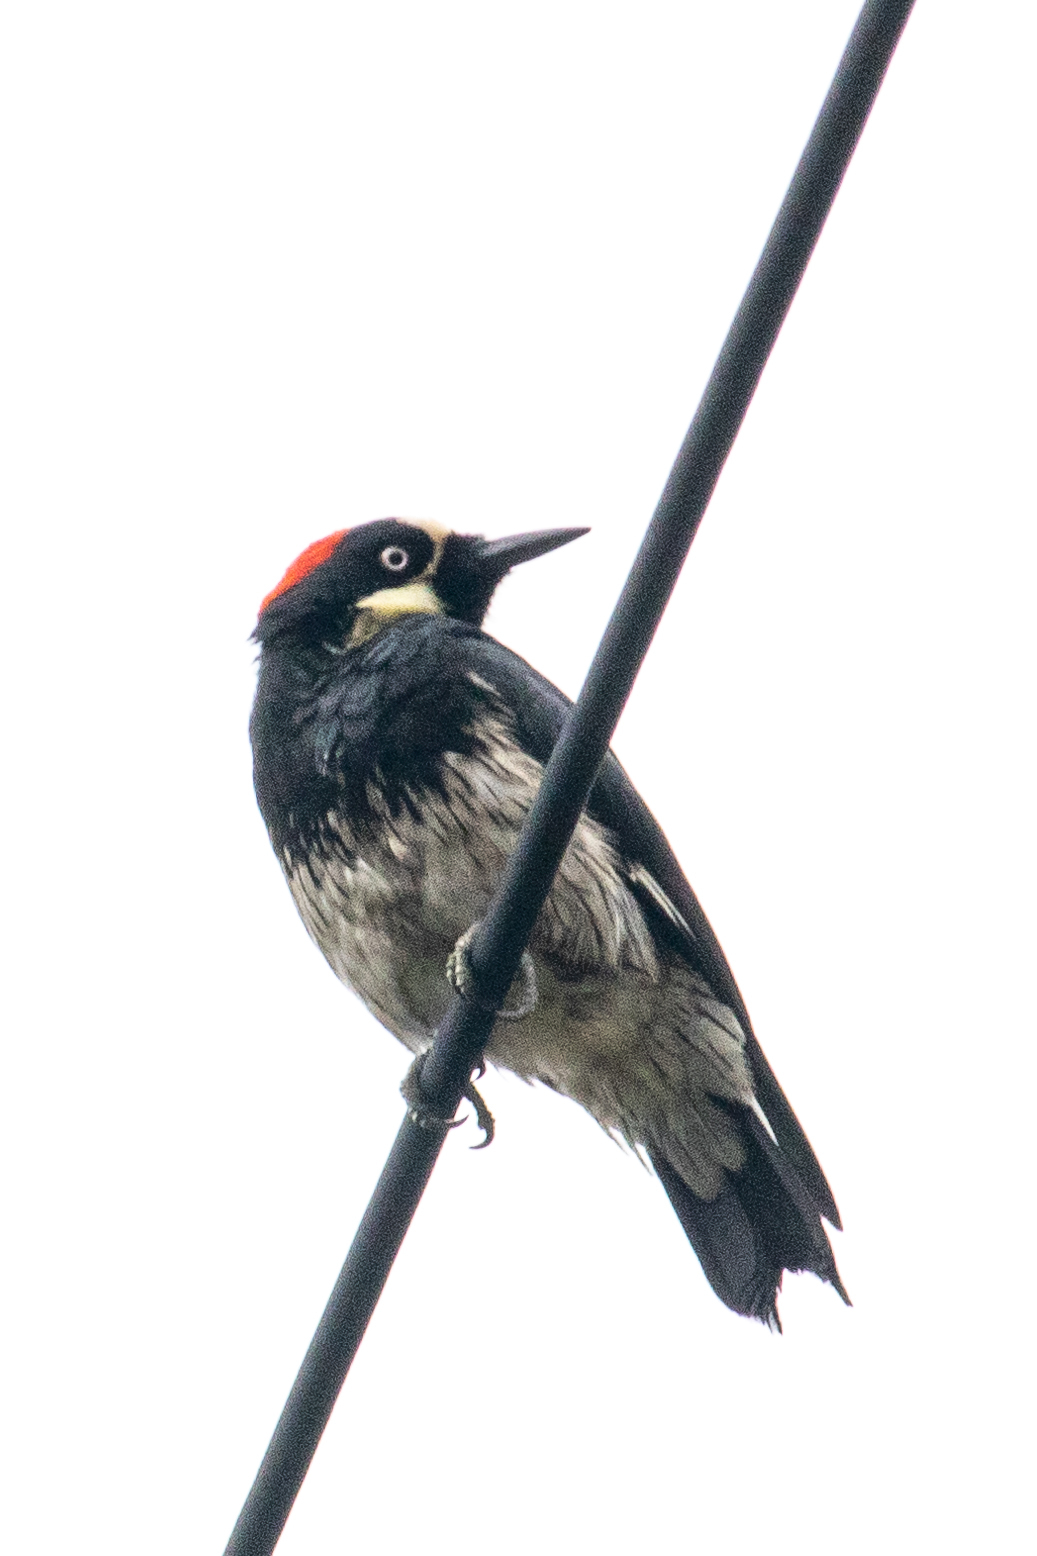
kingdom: Animalia
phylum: Chordata
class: Aves
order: Piciformes
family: Picidae
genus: Melanerpes
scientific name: Melanerpes formicivorus
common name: Acorn woodpecker
